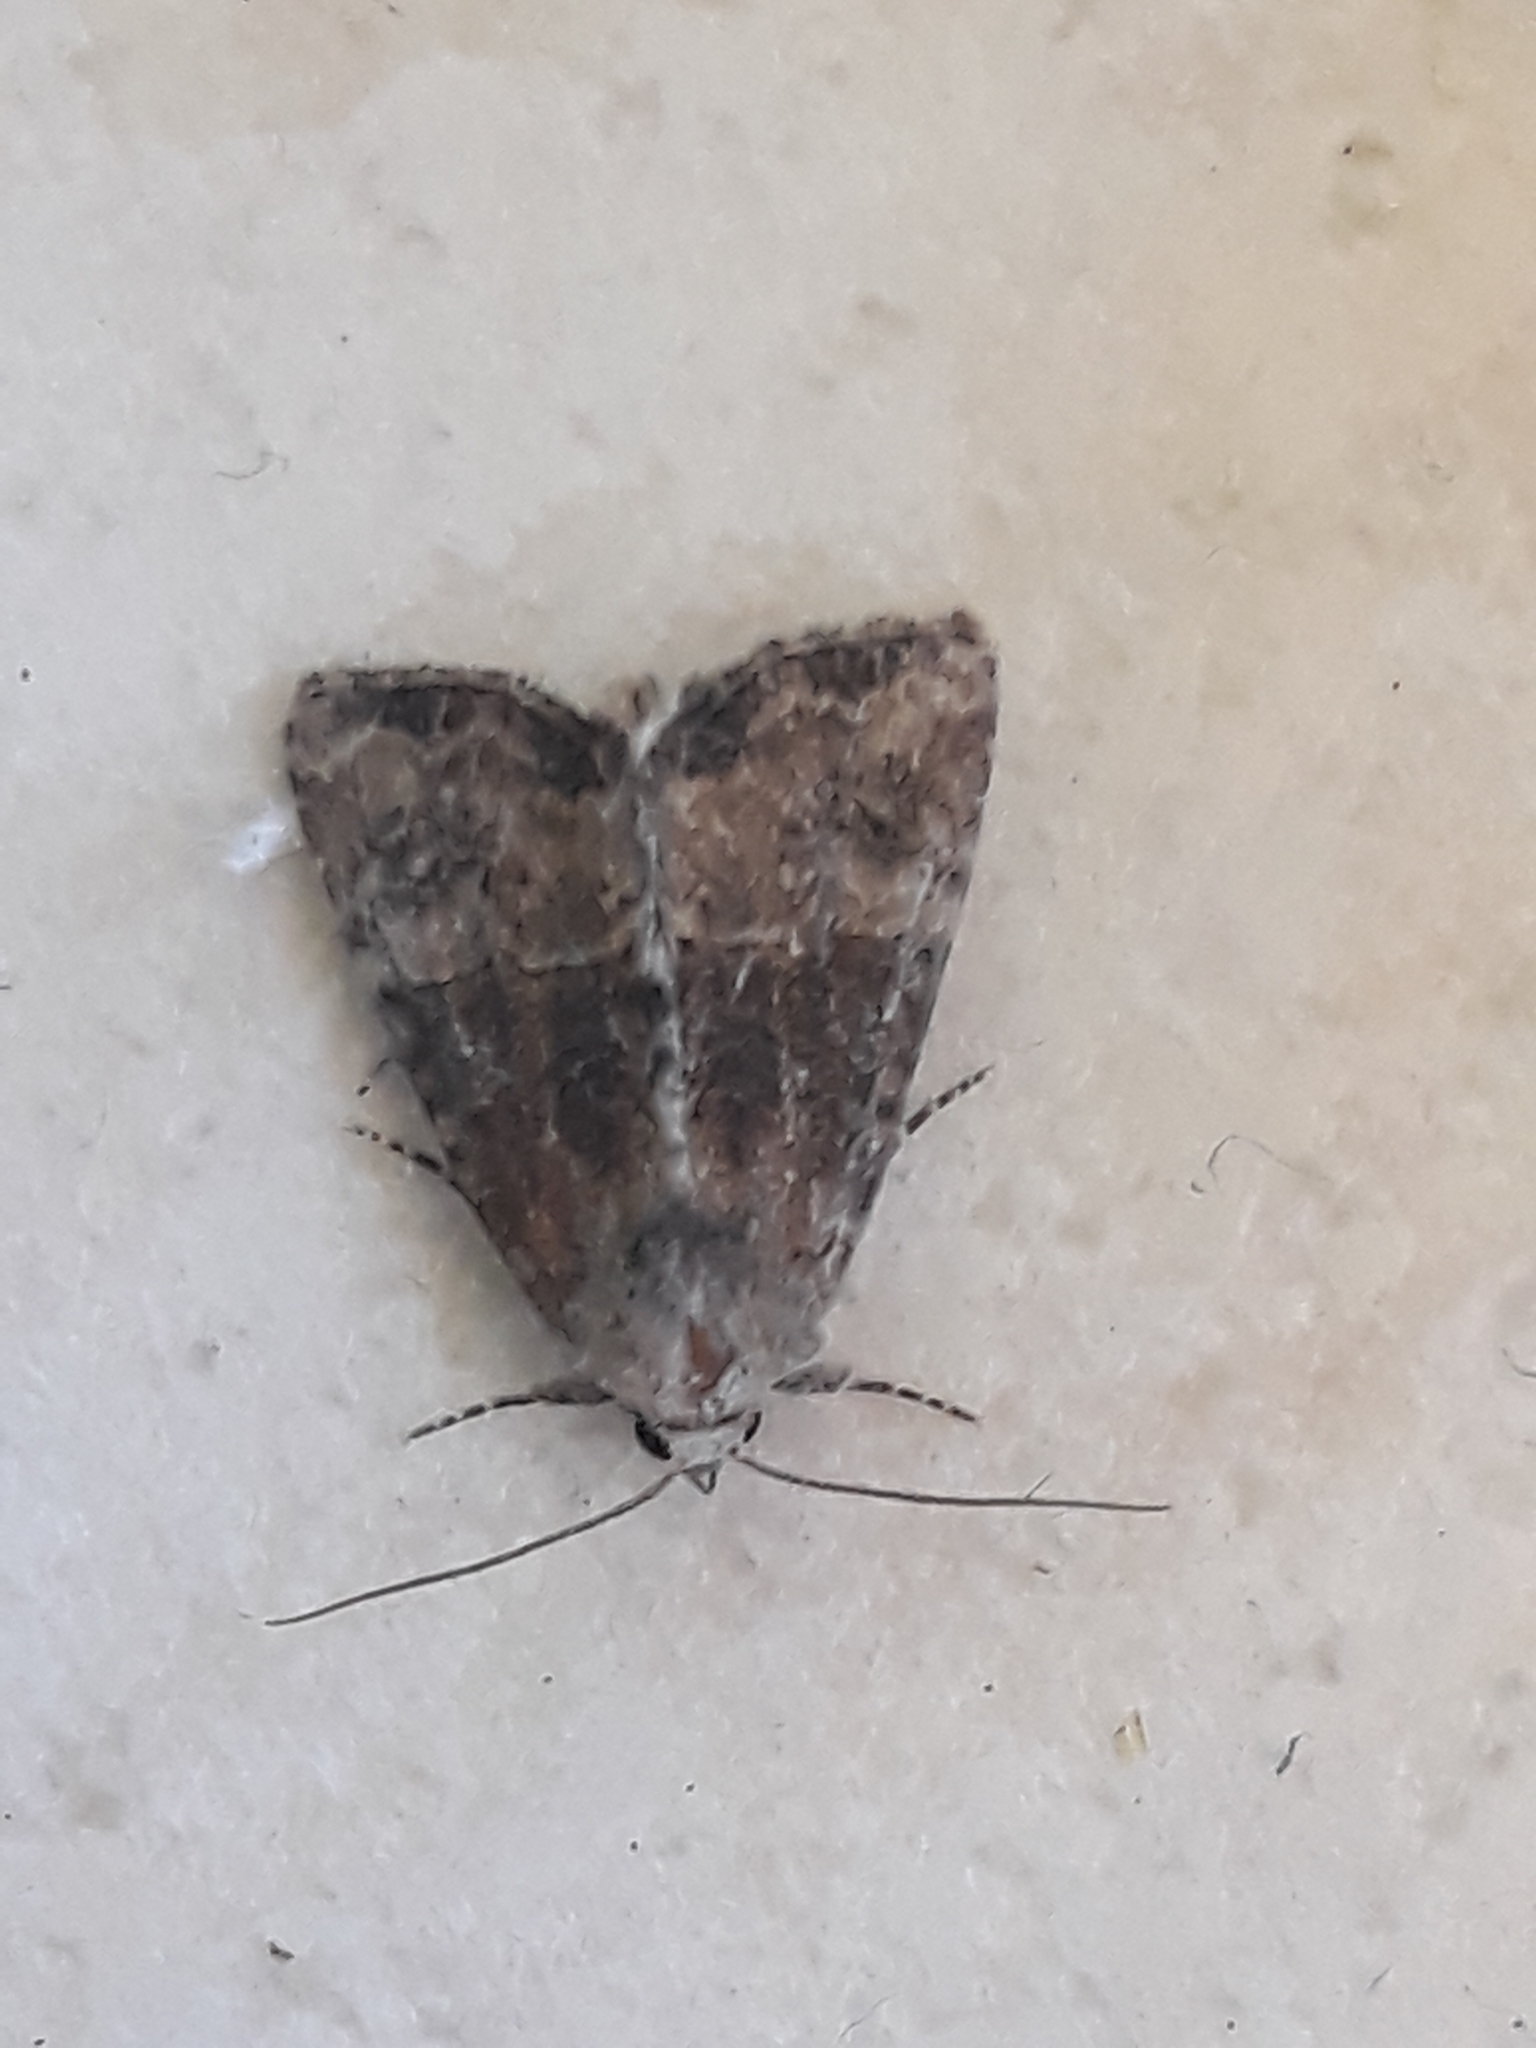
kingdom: Animalia
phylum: Arthropoda
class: Insecta
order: Lepidoptera
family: Noctuidae
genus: Mesoligia
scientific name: Mesoligia furuncula
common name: Cloaked minor
